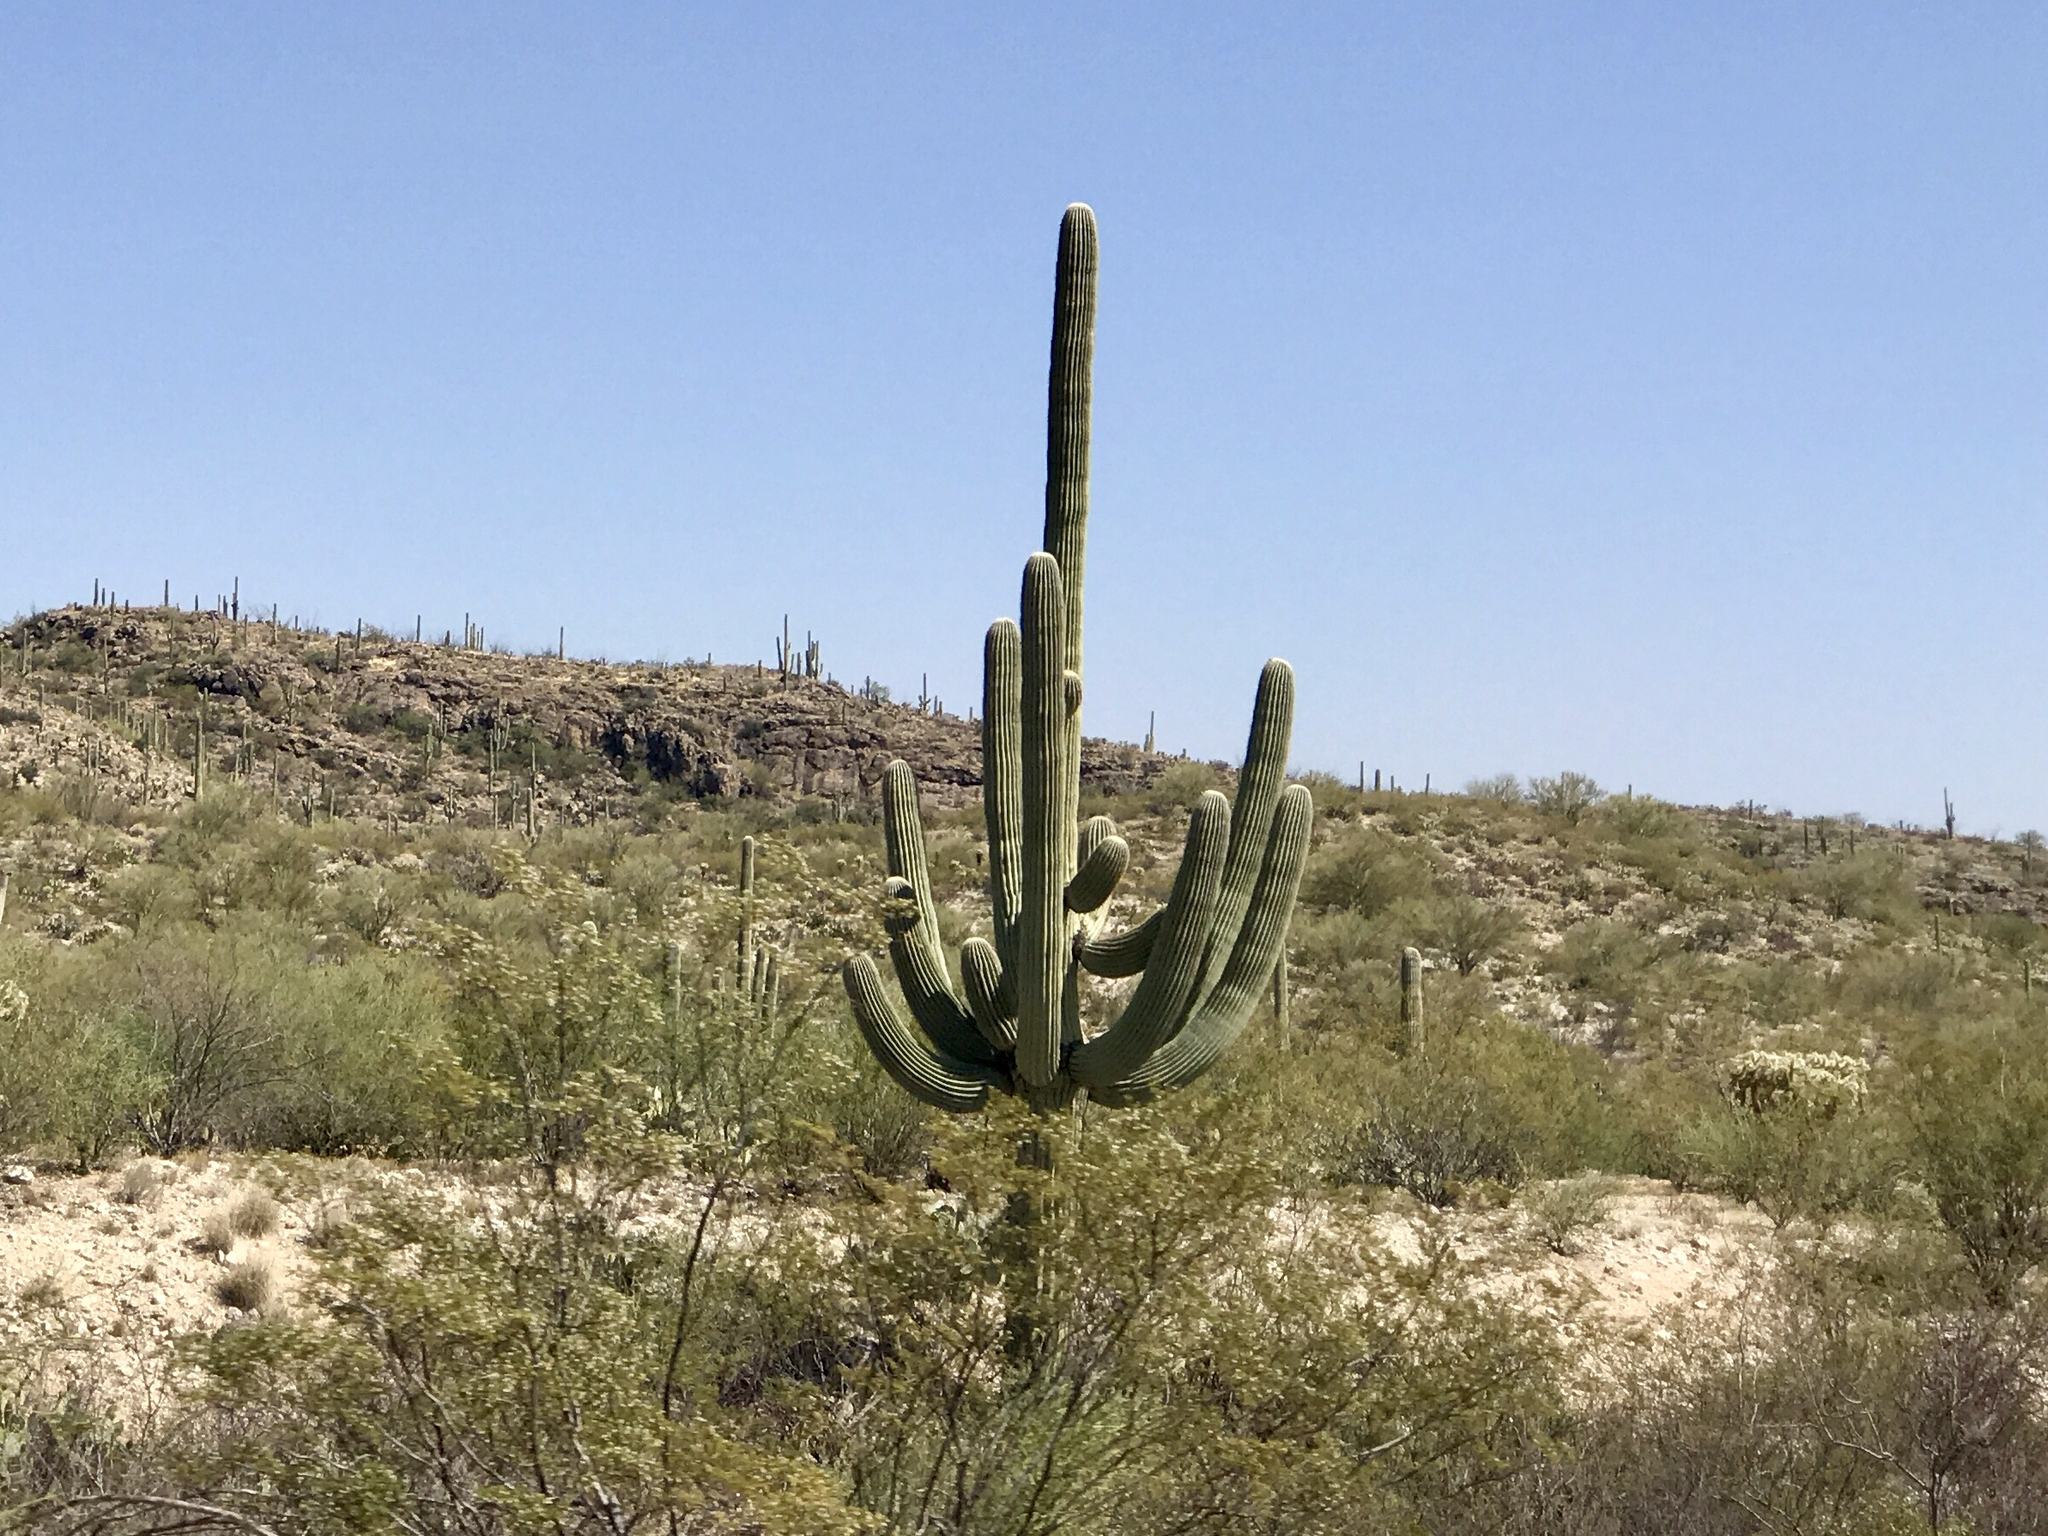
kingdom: Plantae
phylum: Tracheophyta
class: Magnoliopsida
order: Caryophyllales
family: Cactaceae
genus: Carnegiea
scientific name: Carnegiea gigantea
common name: Saguaro
